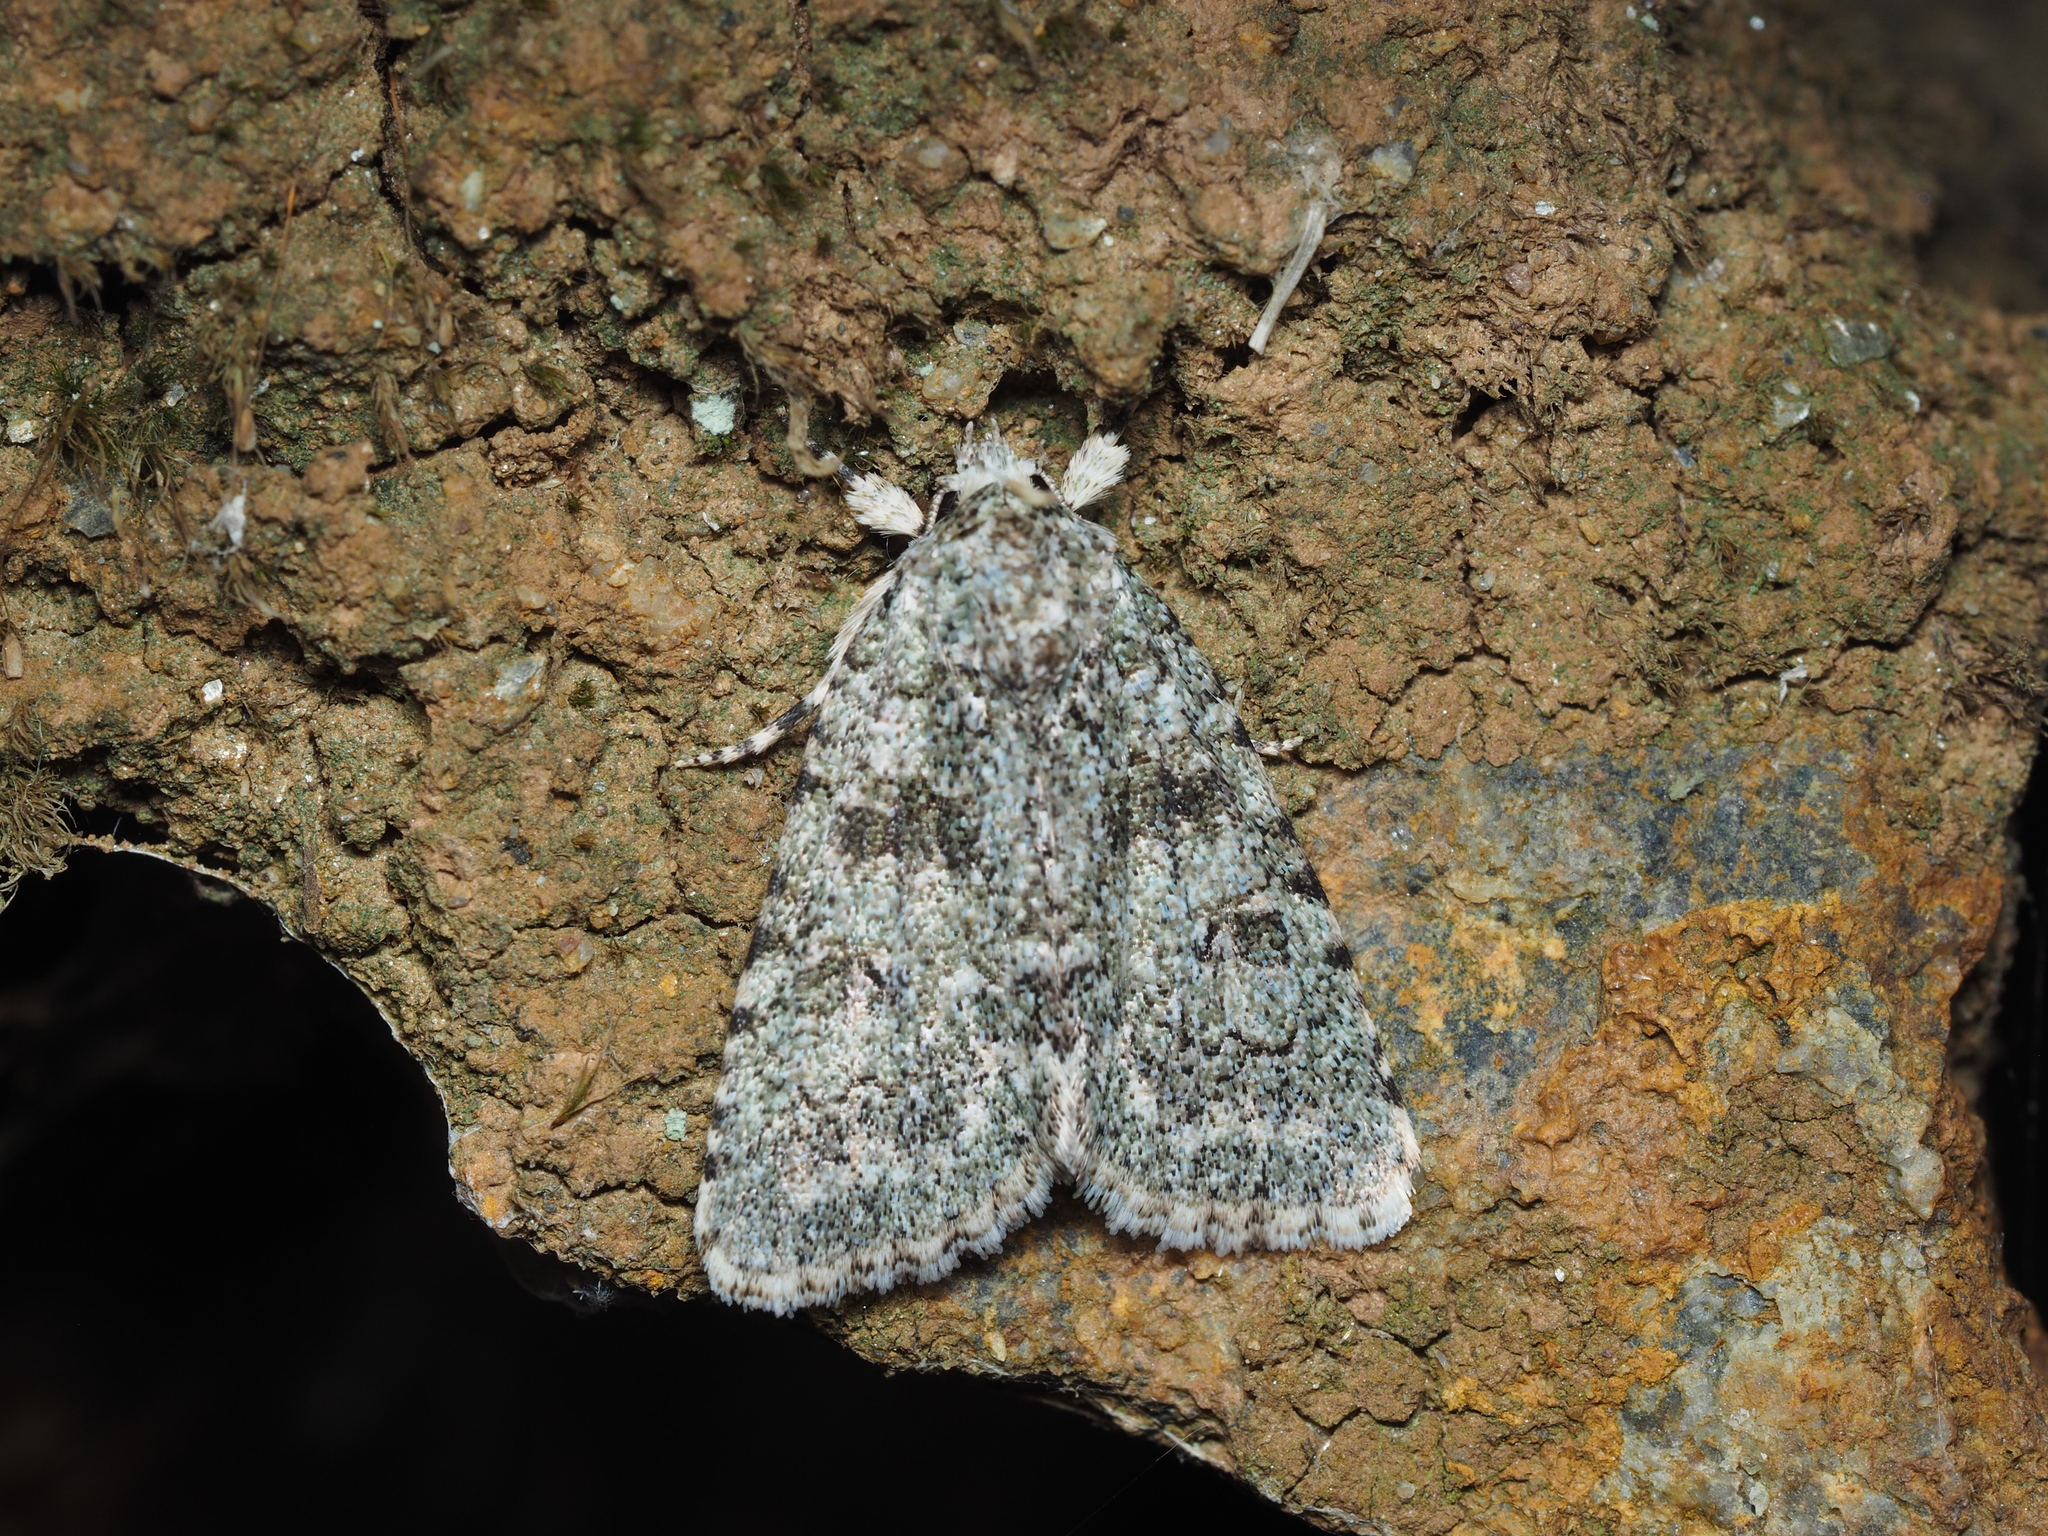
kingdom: Animalia
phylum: Arthropoda
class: Insecta
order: Lepidoptera
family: Noctuidae
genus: Nyctobrya
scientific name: Nyctobrya muralis
